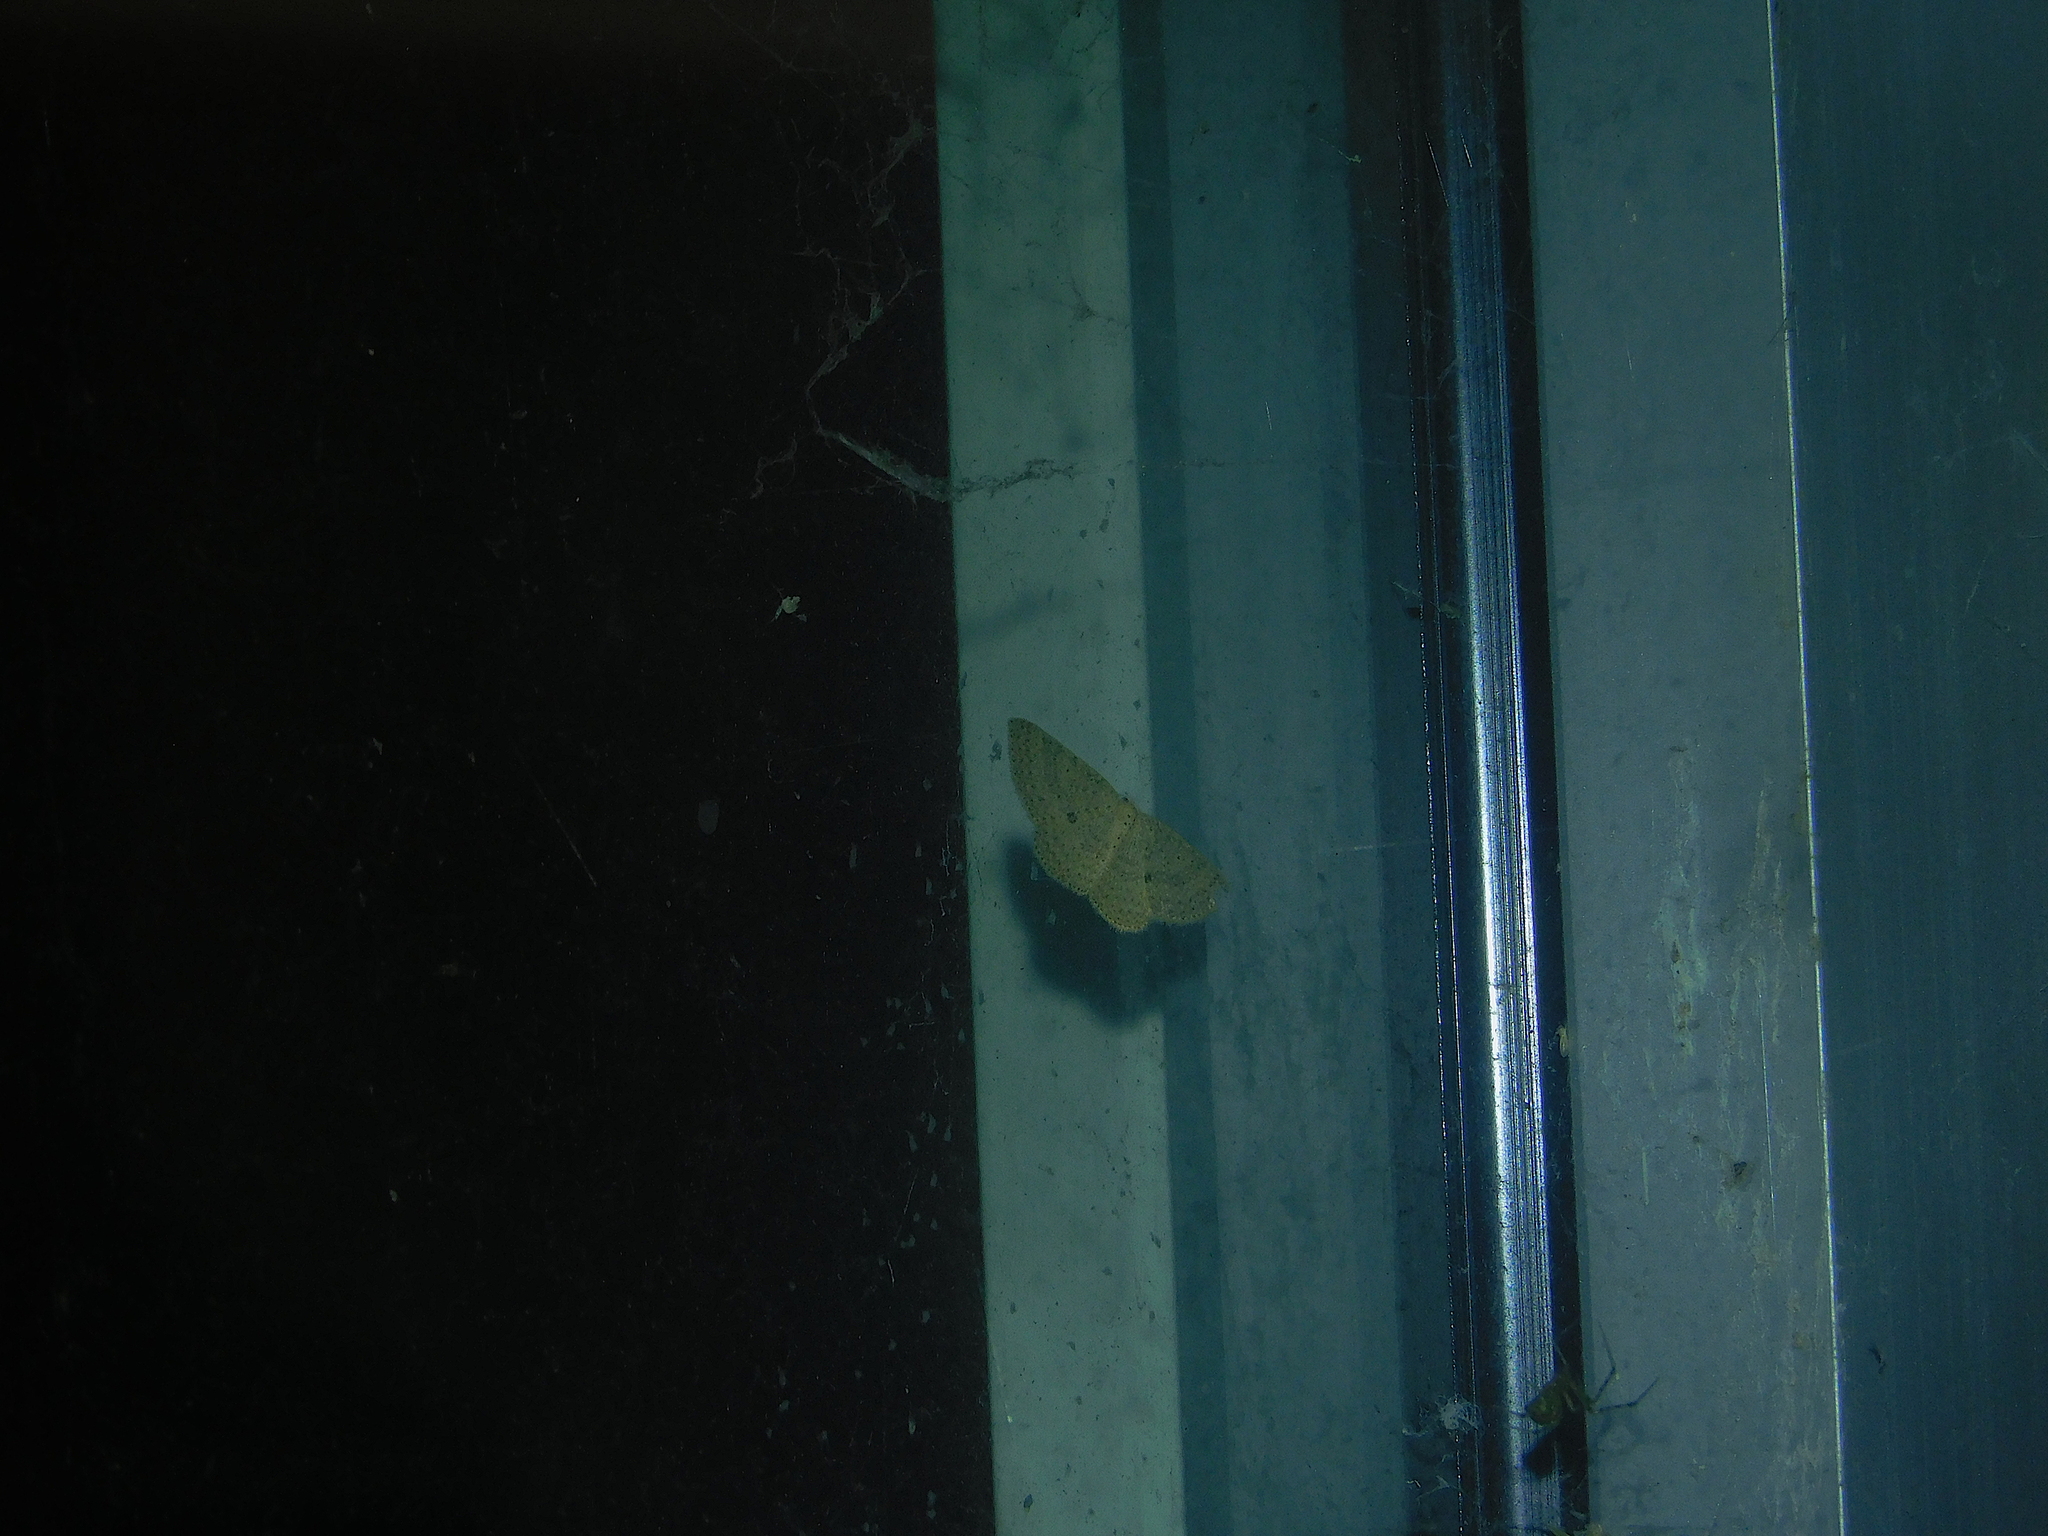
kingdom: Animalia
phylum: Arthropoda
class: Insecta
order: Lepidoptera
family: Geometridae
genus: Poecilasthena
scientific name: Poecilasthena anthodes
